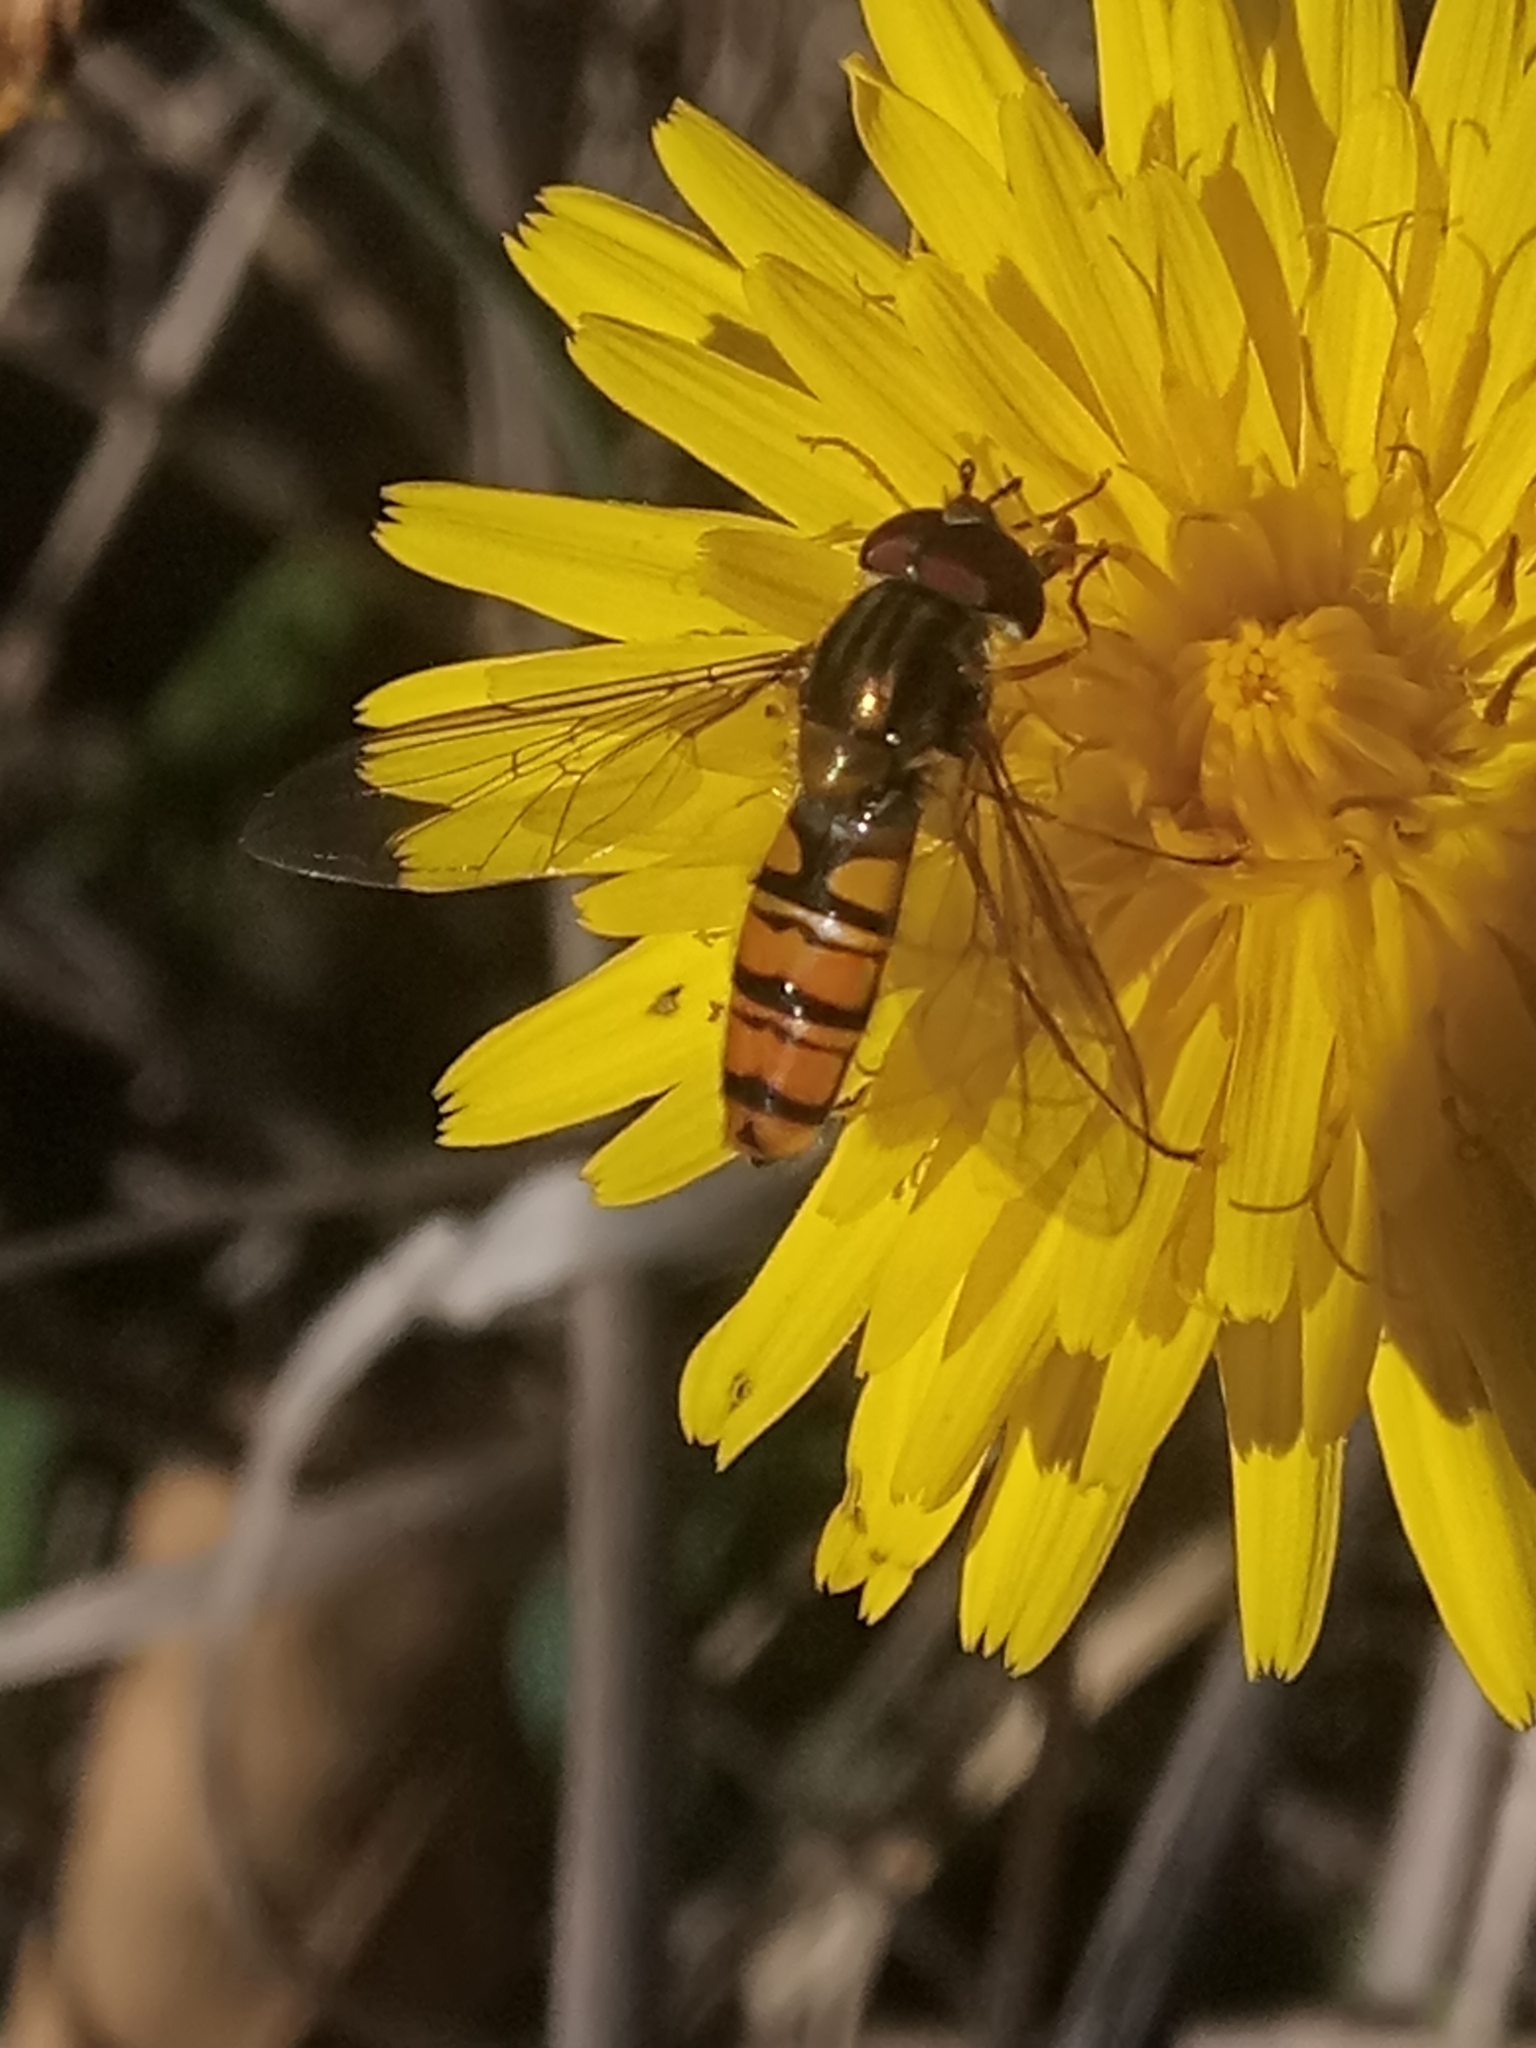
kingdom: Animalia
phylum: Arthropoda
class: Insecta
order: Diptera
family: Syrphidae
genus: Episyrphus
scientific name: Episyrphus balteatus
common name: Marmalade hoverfly
